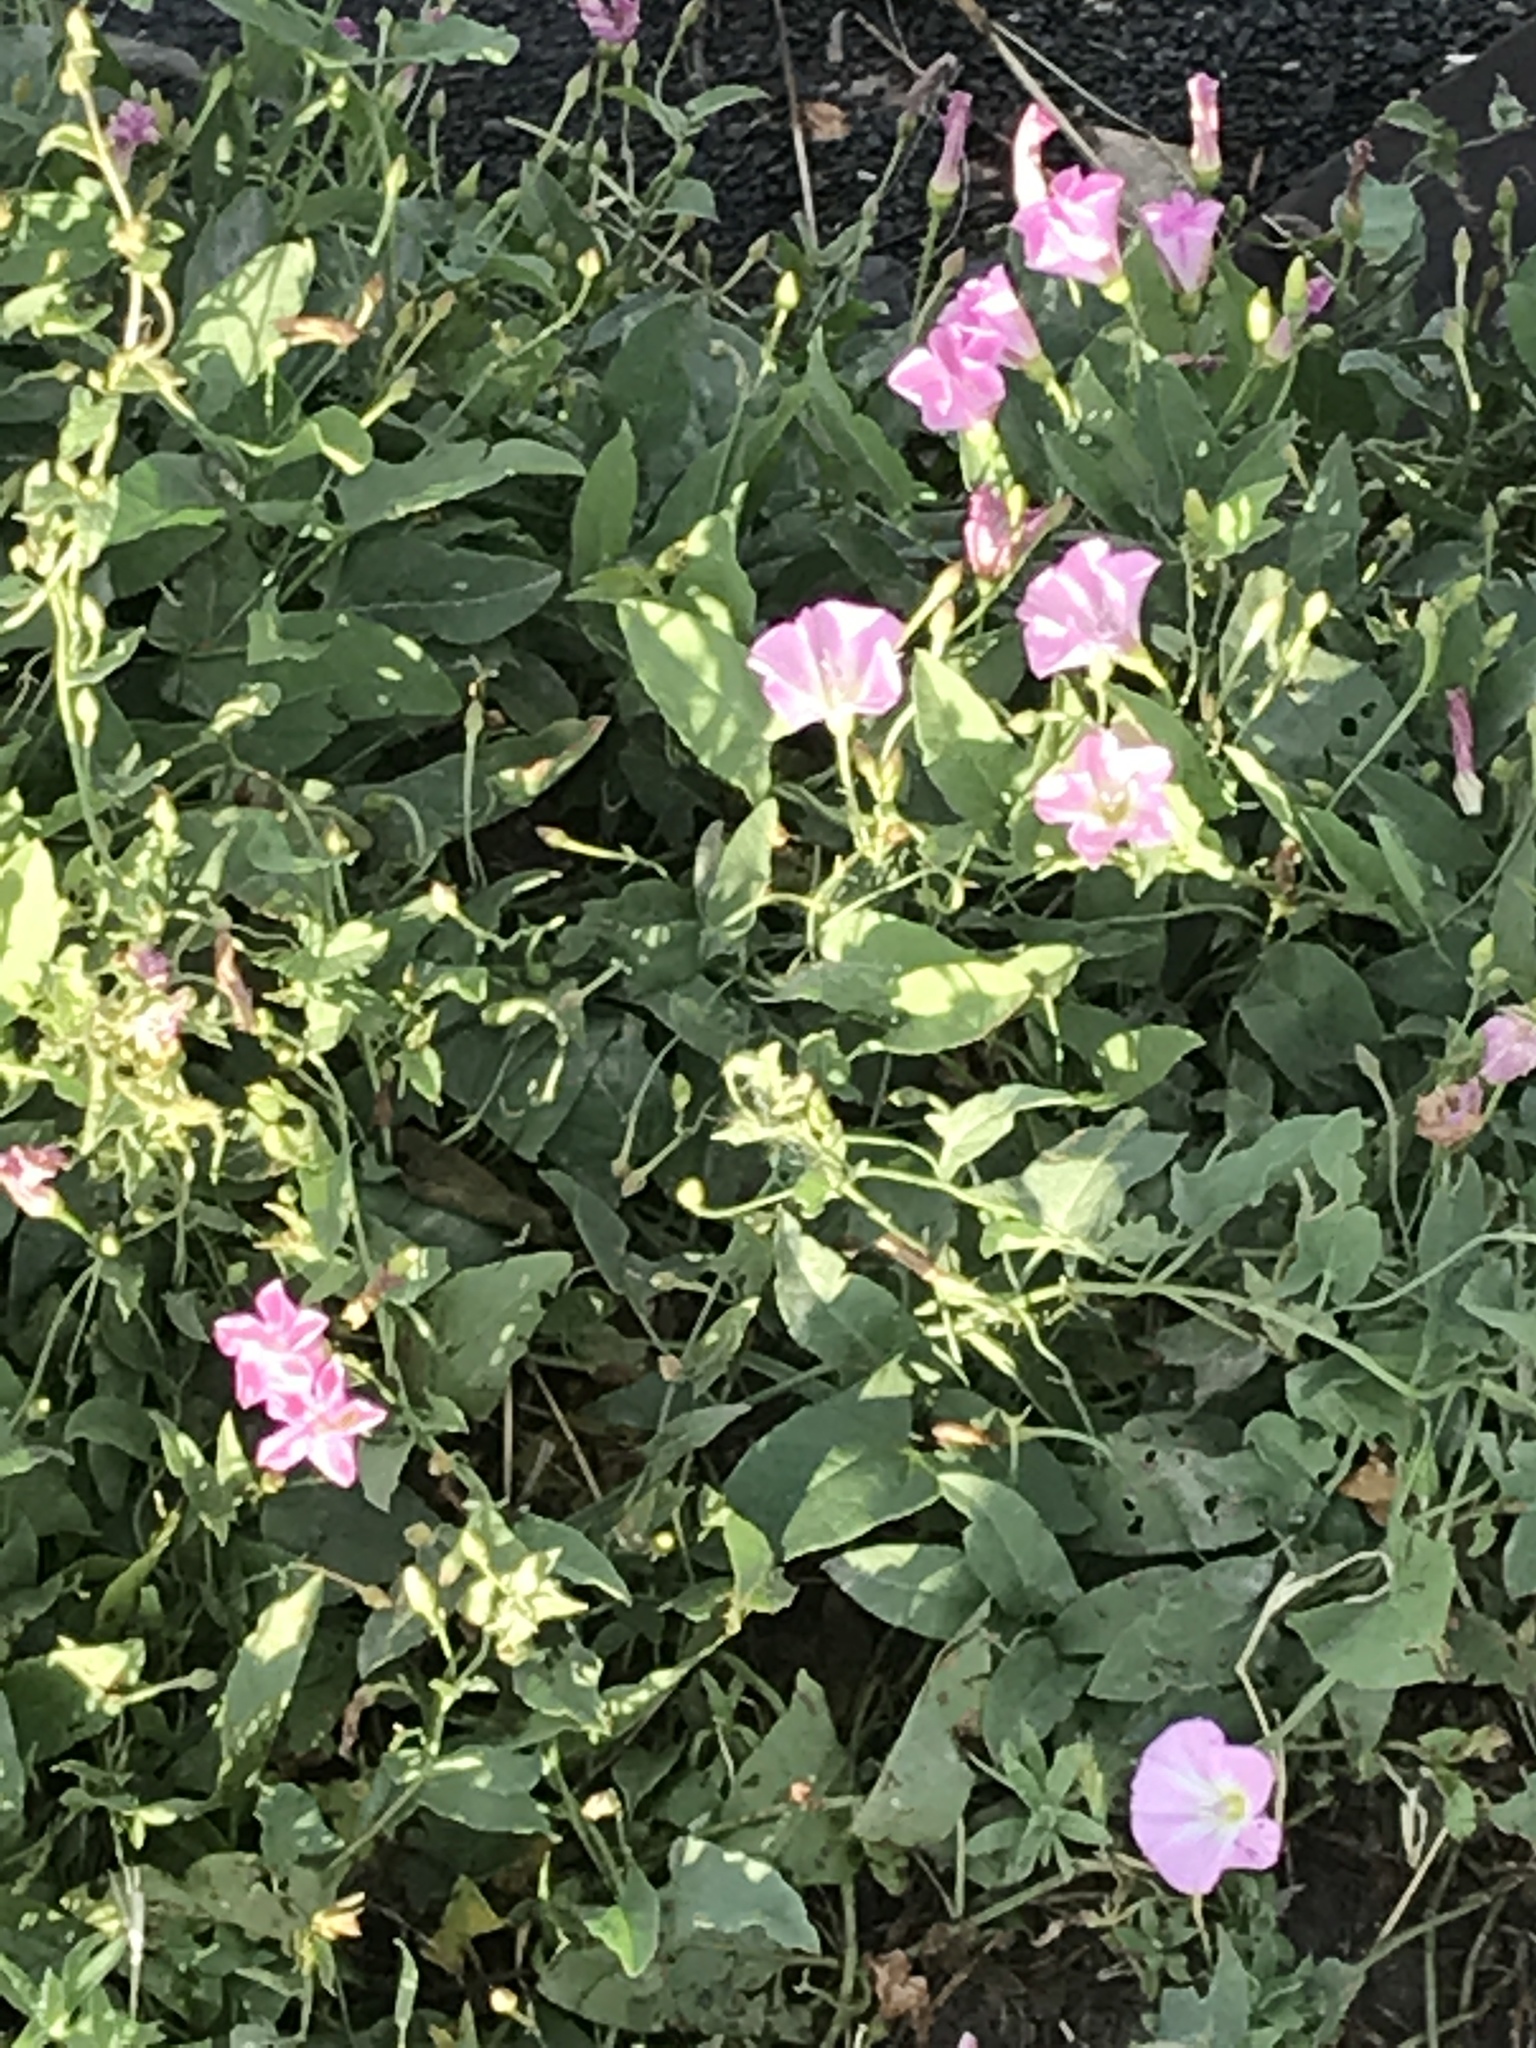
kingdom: Plantae
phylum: Tracheophyta
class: Magnoliopsida
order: Solanales
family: Convolvulaceae
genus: Convolvulus
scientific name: Convolvulus arvensis
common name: Field bindweed
